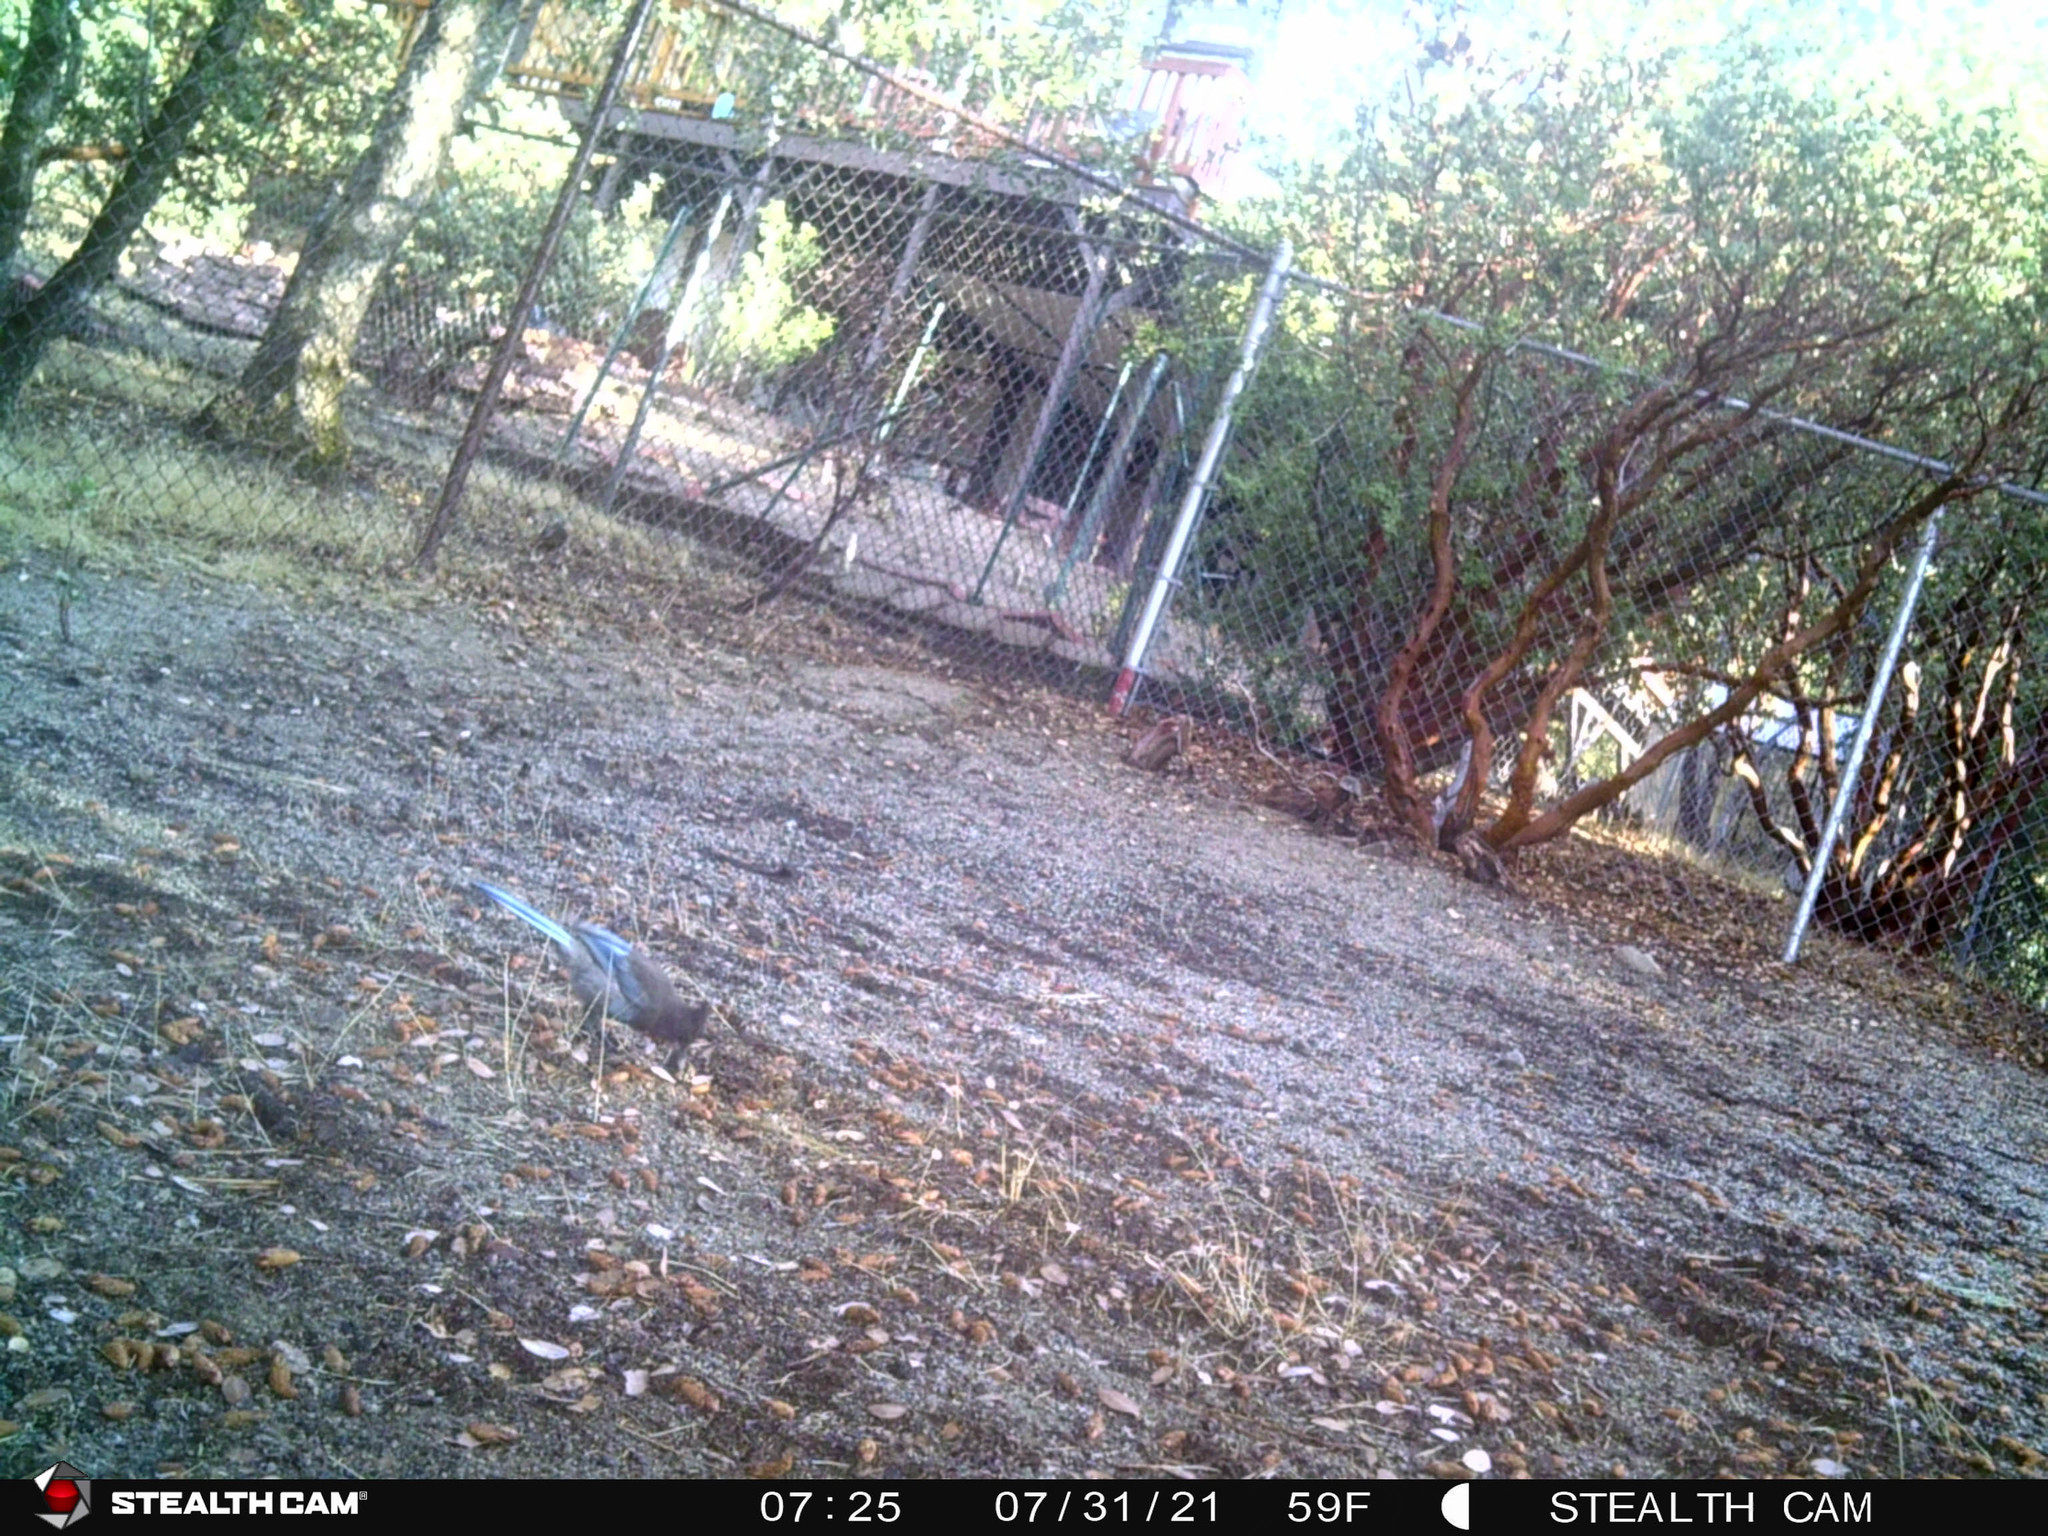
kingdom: Animalia
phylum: Chordata
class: Aves
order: Passeriformes
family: Corvidae
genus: Cyanocitta
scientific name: Cyanocitta stelleri
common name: Steller's jay
